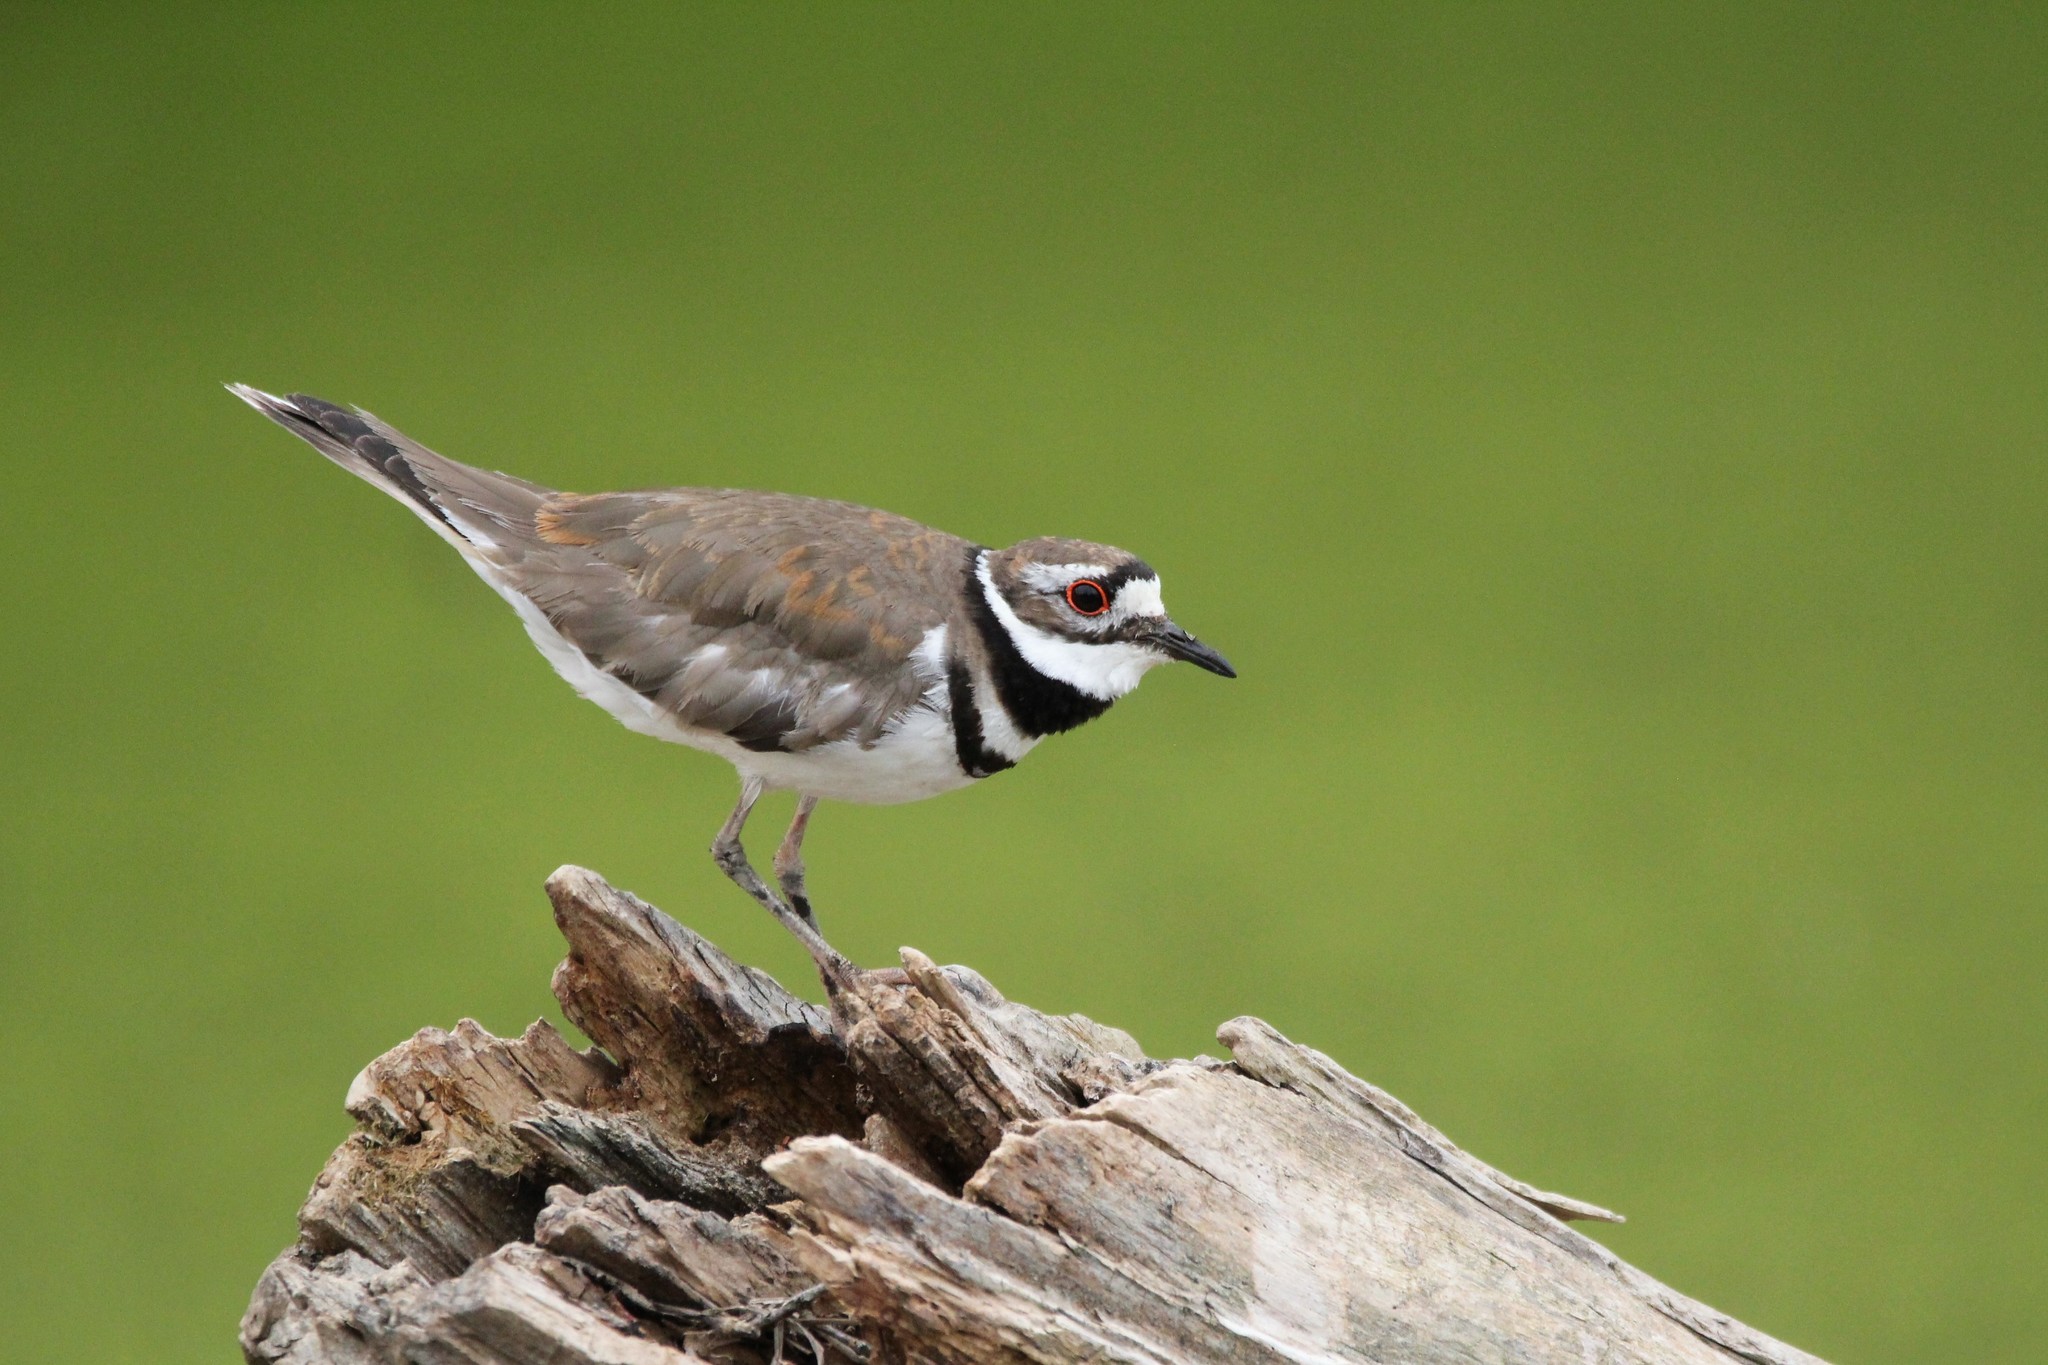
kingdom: Animalia
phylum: Chordata
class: Aves
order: Charadriiformes
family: Charadriidae
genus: Charadrius
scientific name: Charadrius vociferus
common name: Killdeer
